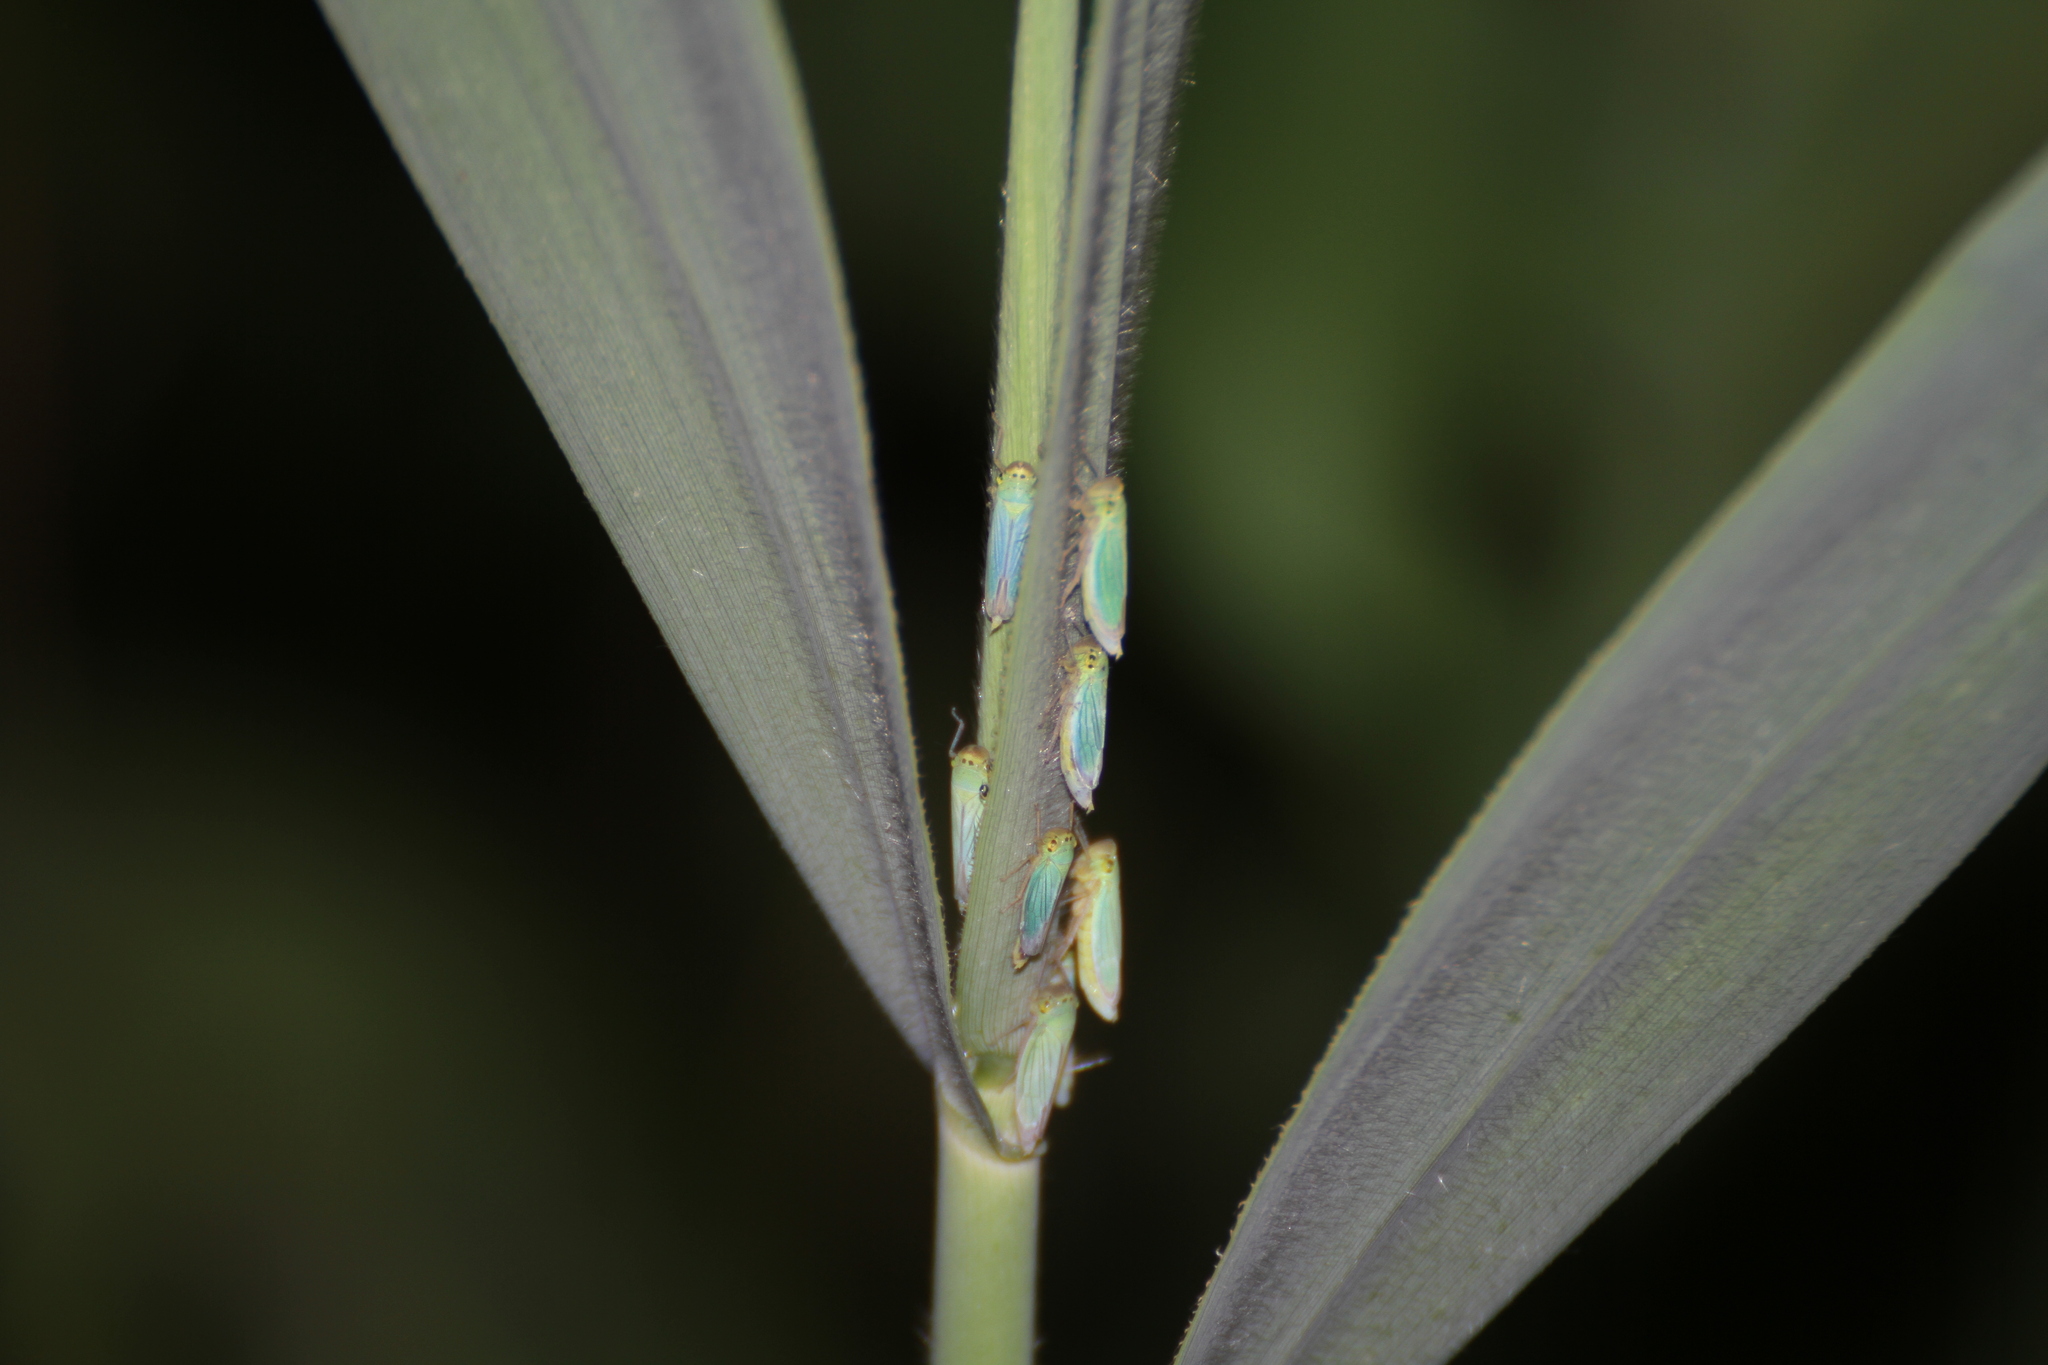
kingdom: Animalia
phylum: Arthropoda
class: Insecta
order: Hemiptera
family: Cicadellidae
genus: Cicadella
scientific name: Cicadella viridis
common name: Leafhopper
